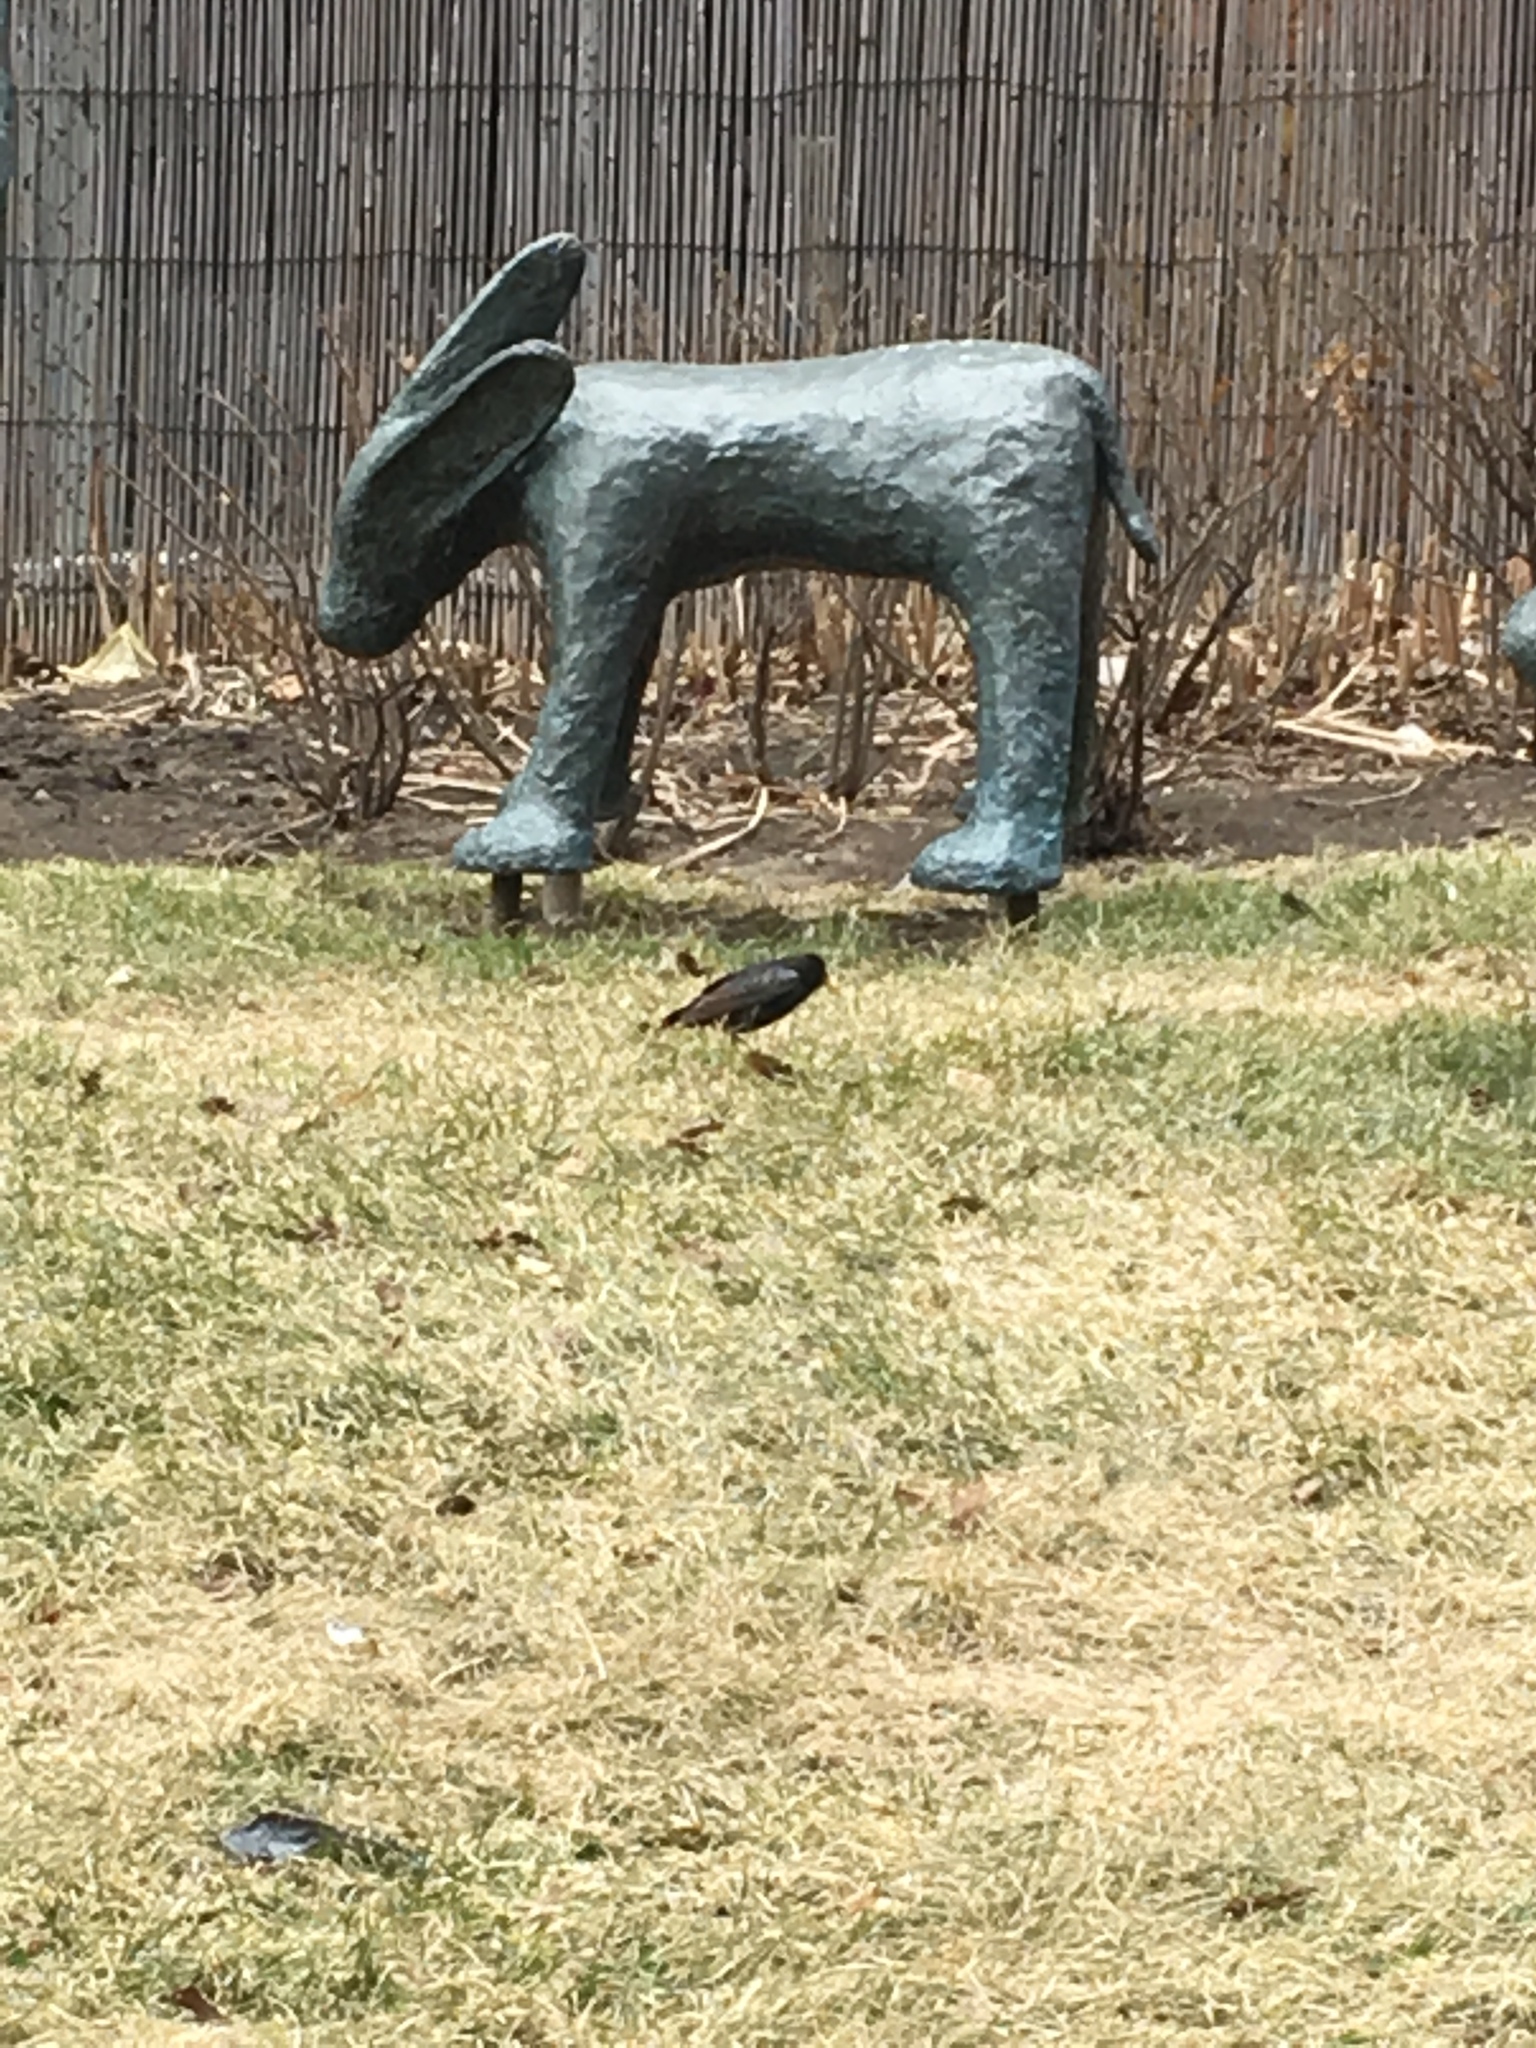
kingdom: Animalia
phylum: Chordata
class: Aves
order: Passeriformes
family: Sturnidae
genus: Sturnus
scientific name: Sturnus vulgaris
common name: Common starling
